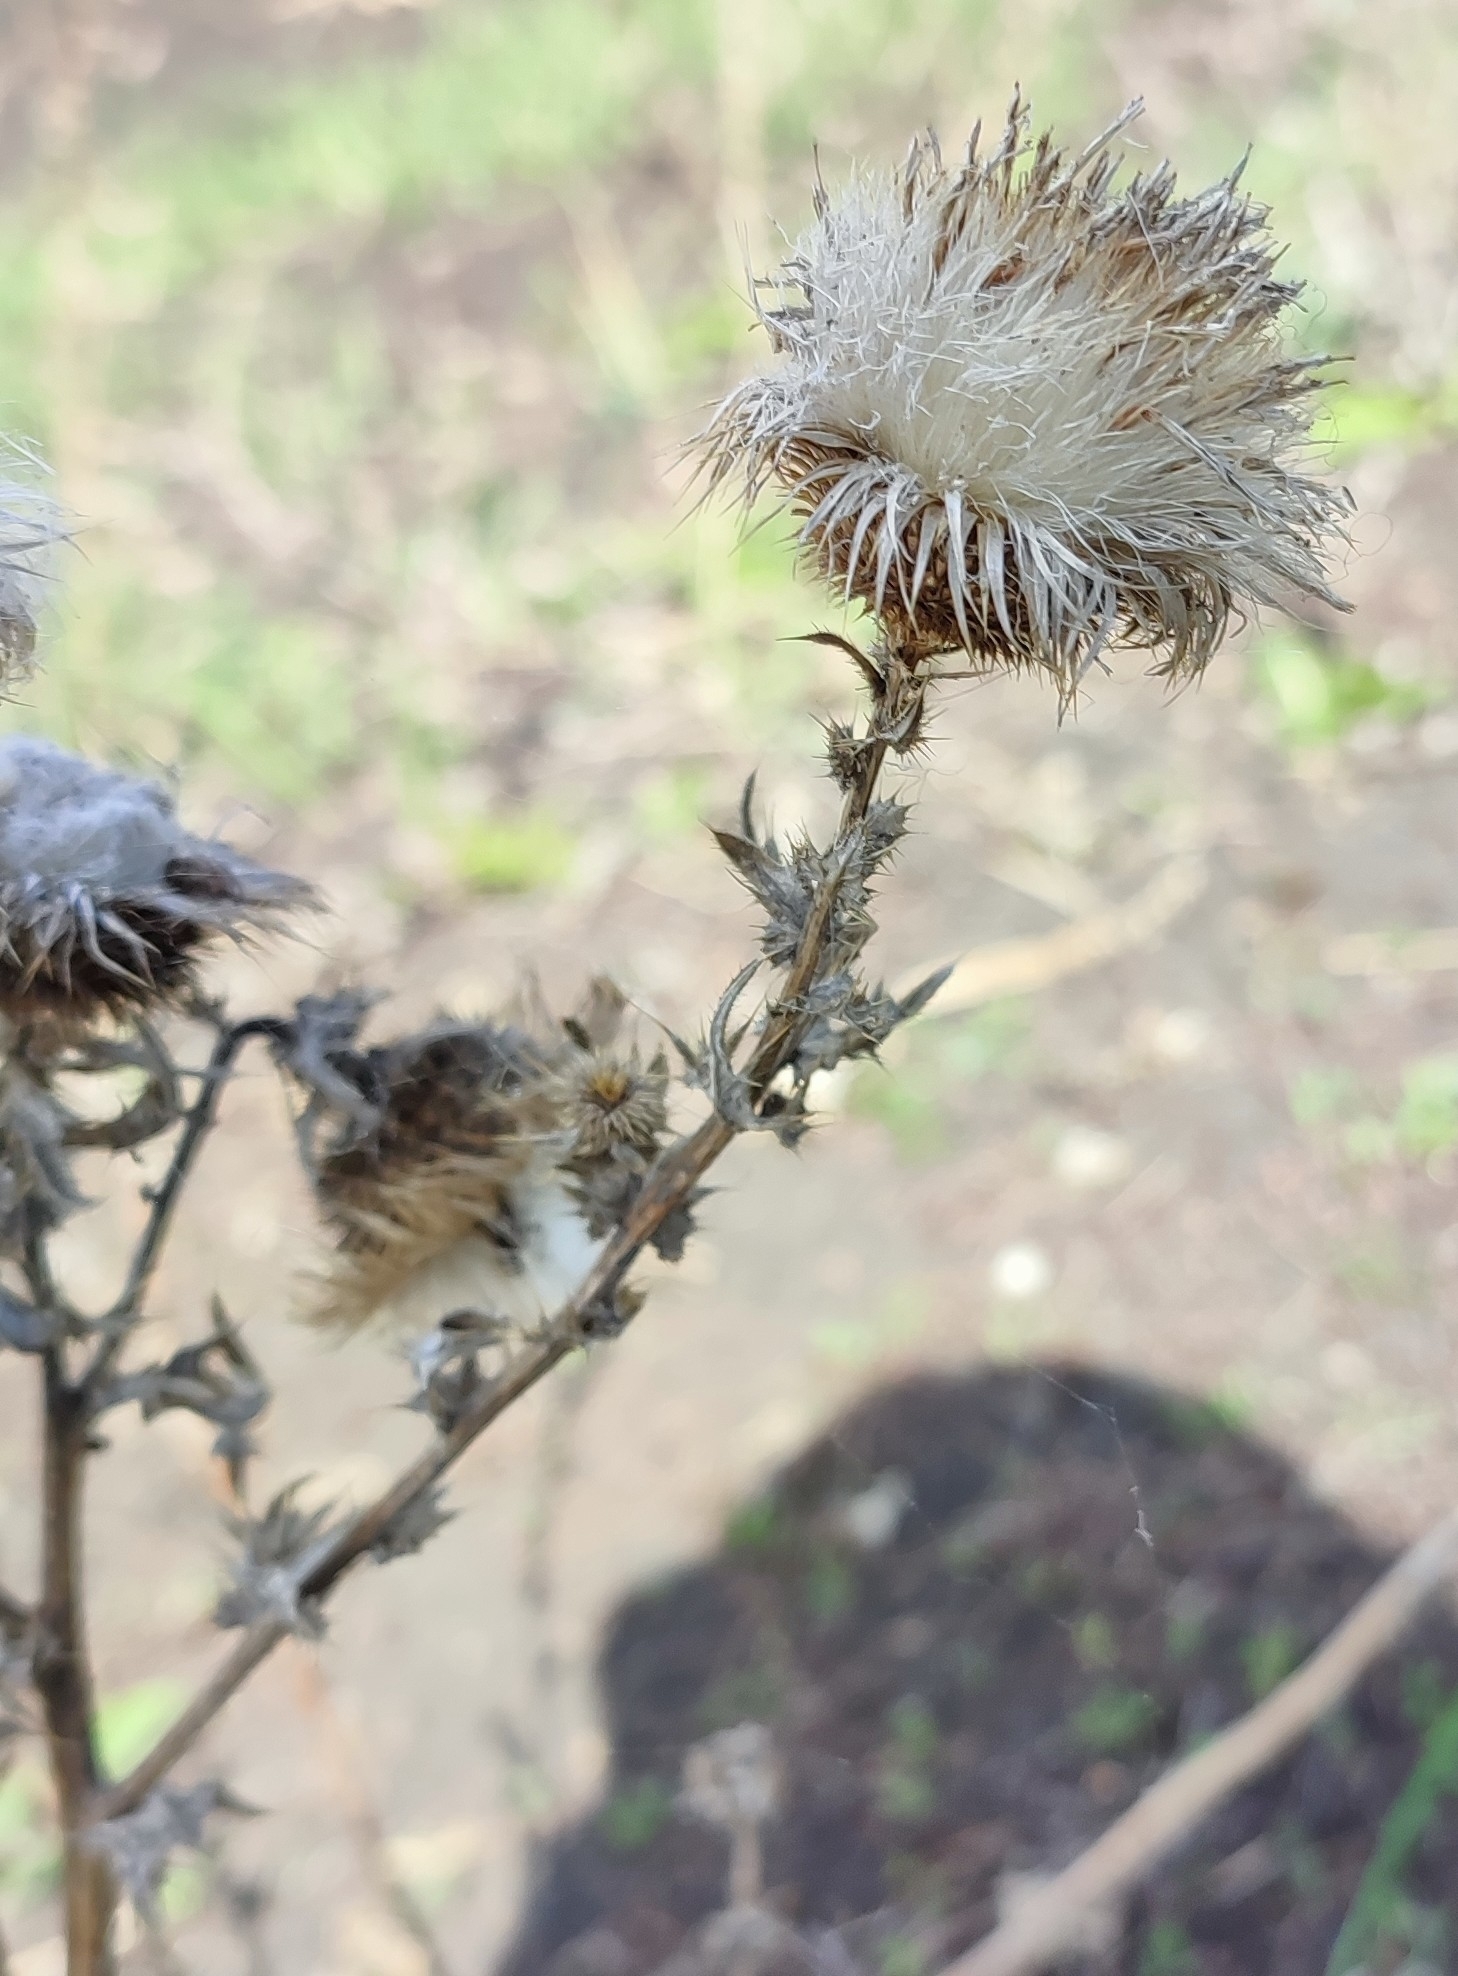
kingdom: Plantae
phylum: Tracheophyta
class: Magnoliopsida
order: Asterales
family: Asteraceae
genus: Cirsium
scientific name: Cirsium vulgare
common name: Bull thistle
